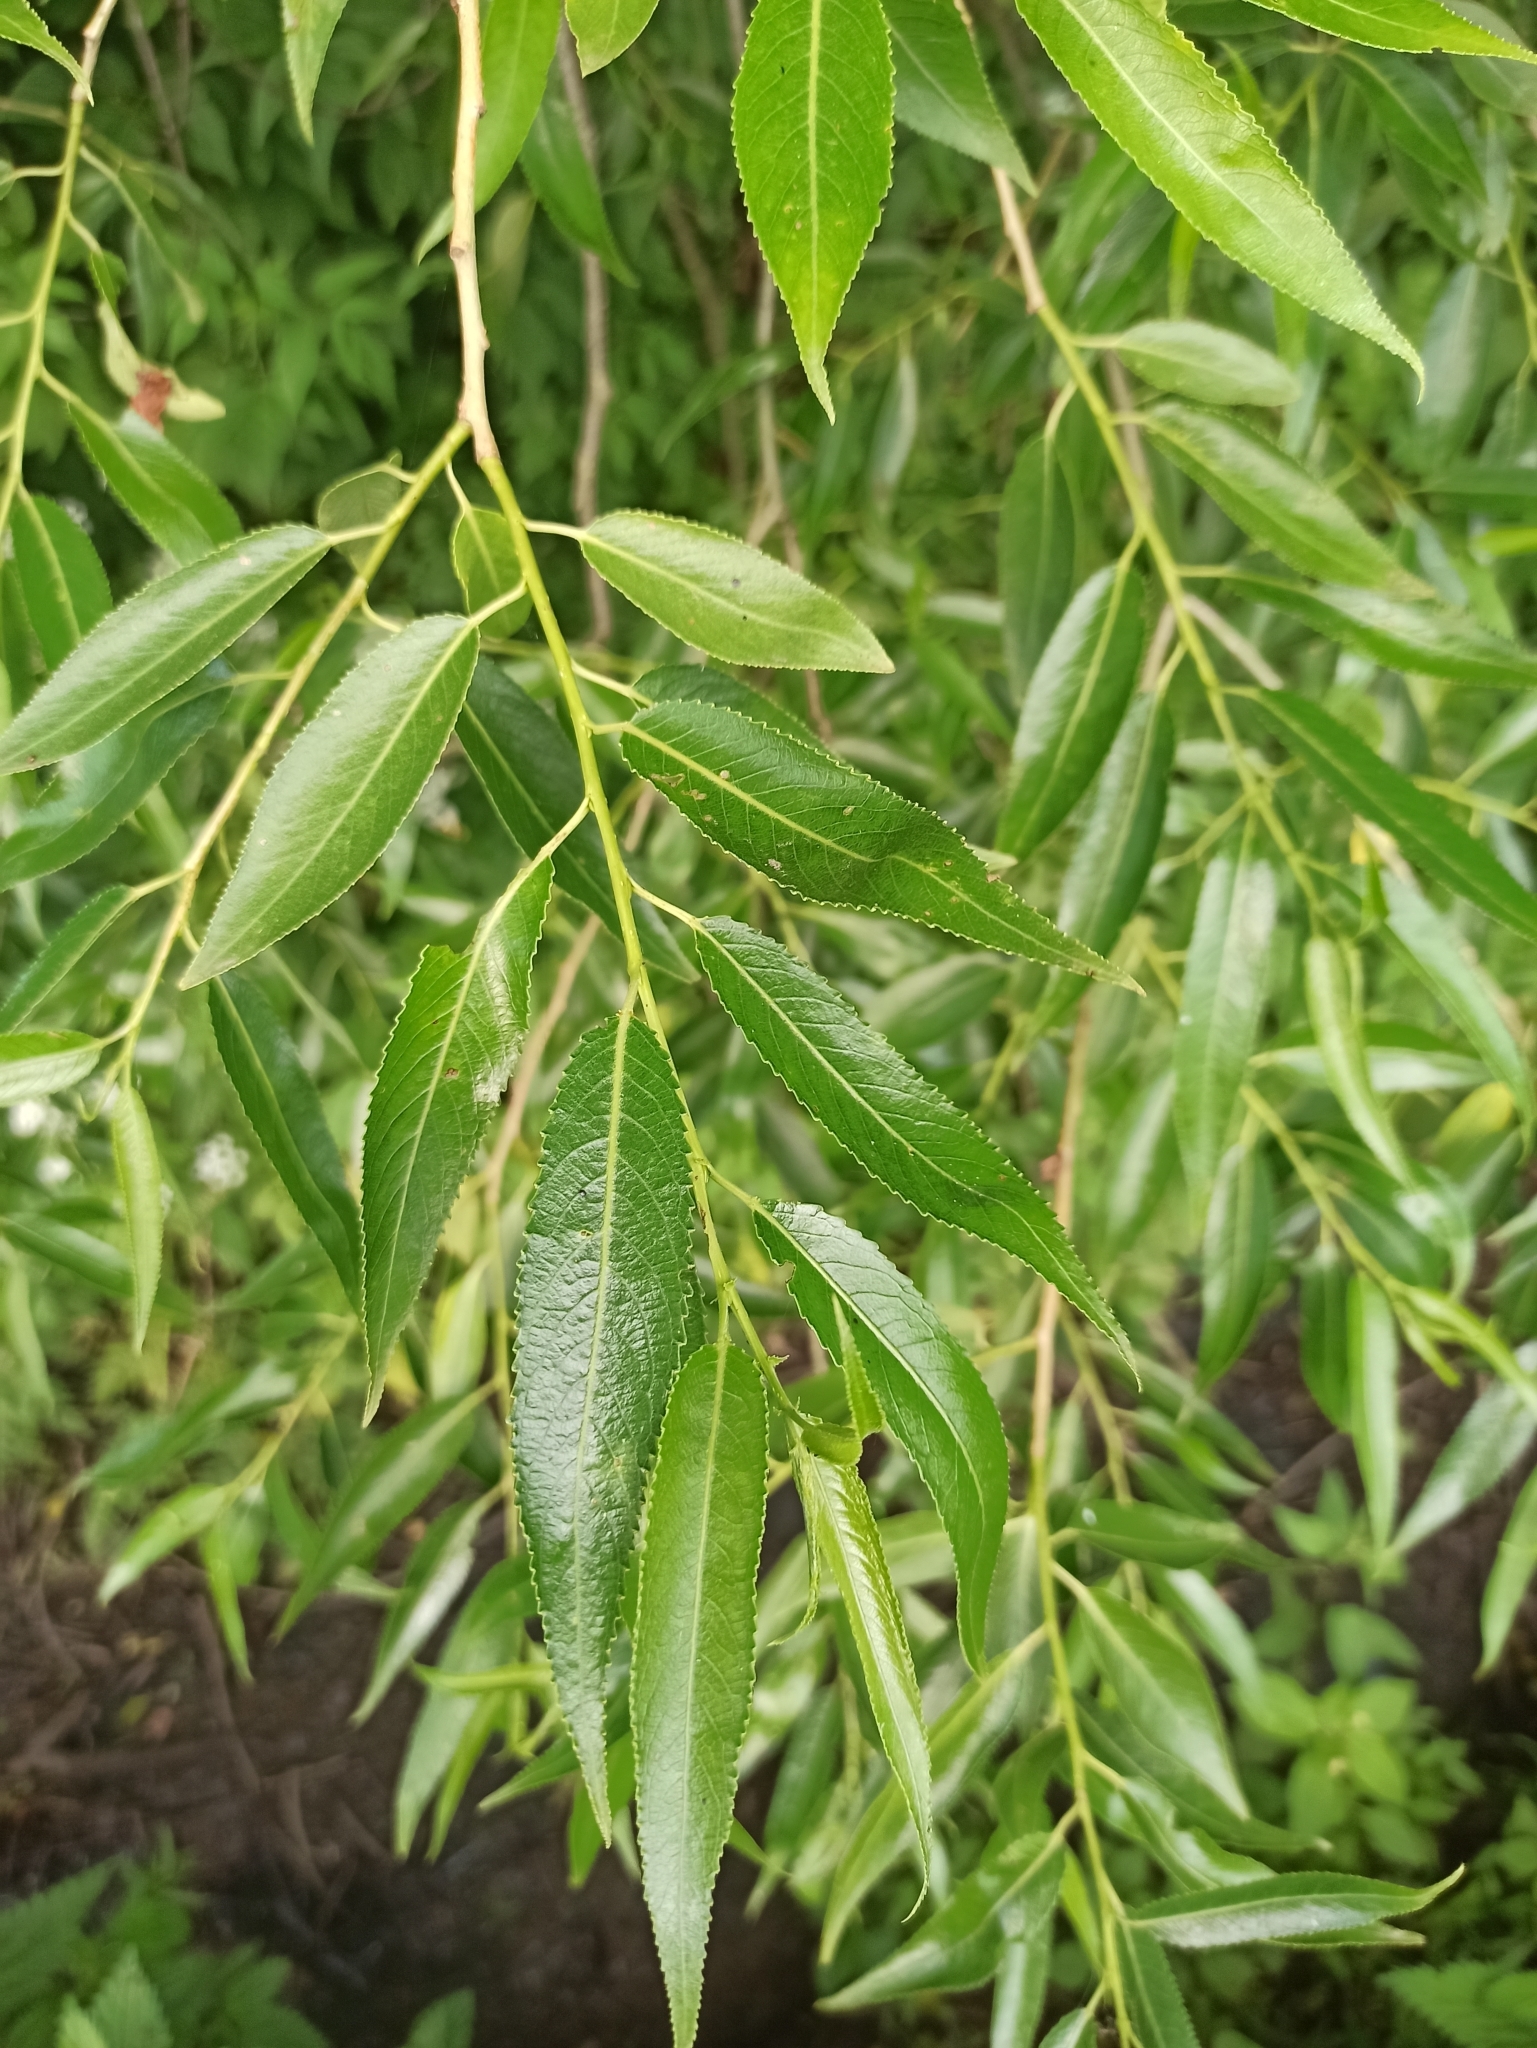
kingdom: Plantae
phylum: Tracheophyta
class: Magnoliopsida
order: Malpighiales
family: Salicaceae
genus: Salix
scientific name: Salix fragilis
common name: Crack willow
